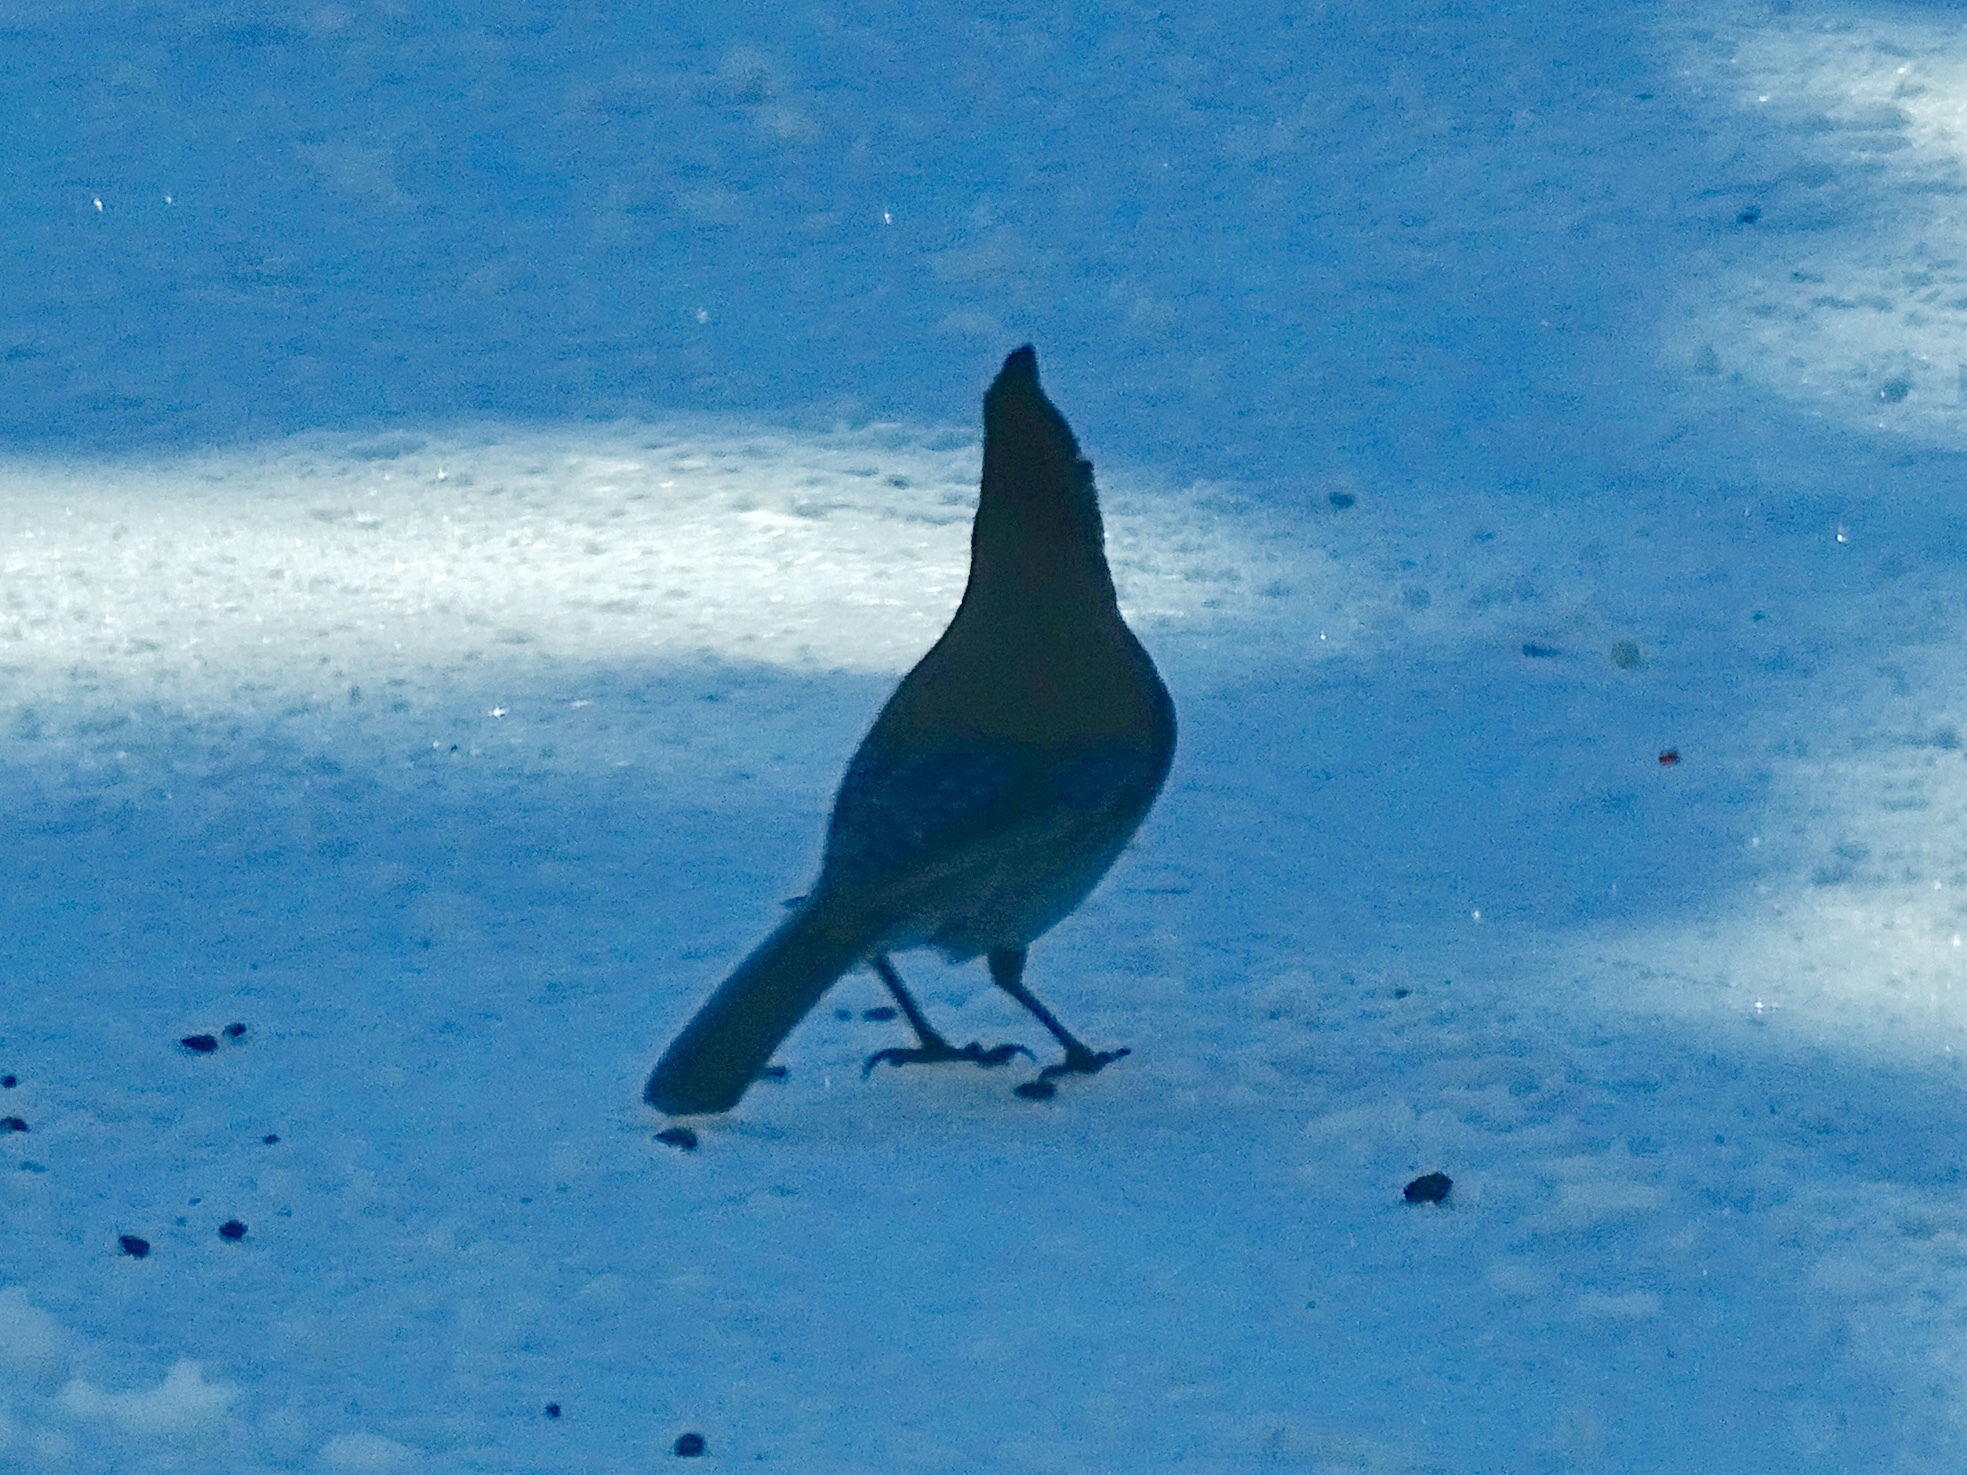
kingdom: Animalia
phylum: Chordata
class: Aves
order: Passeriformes
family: Corvidae
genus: Cyanocitta
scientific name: Cyanocitta stelleri
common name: Steller's jay
